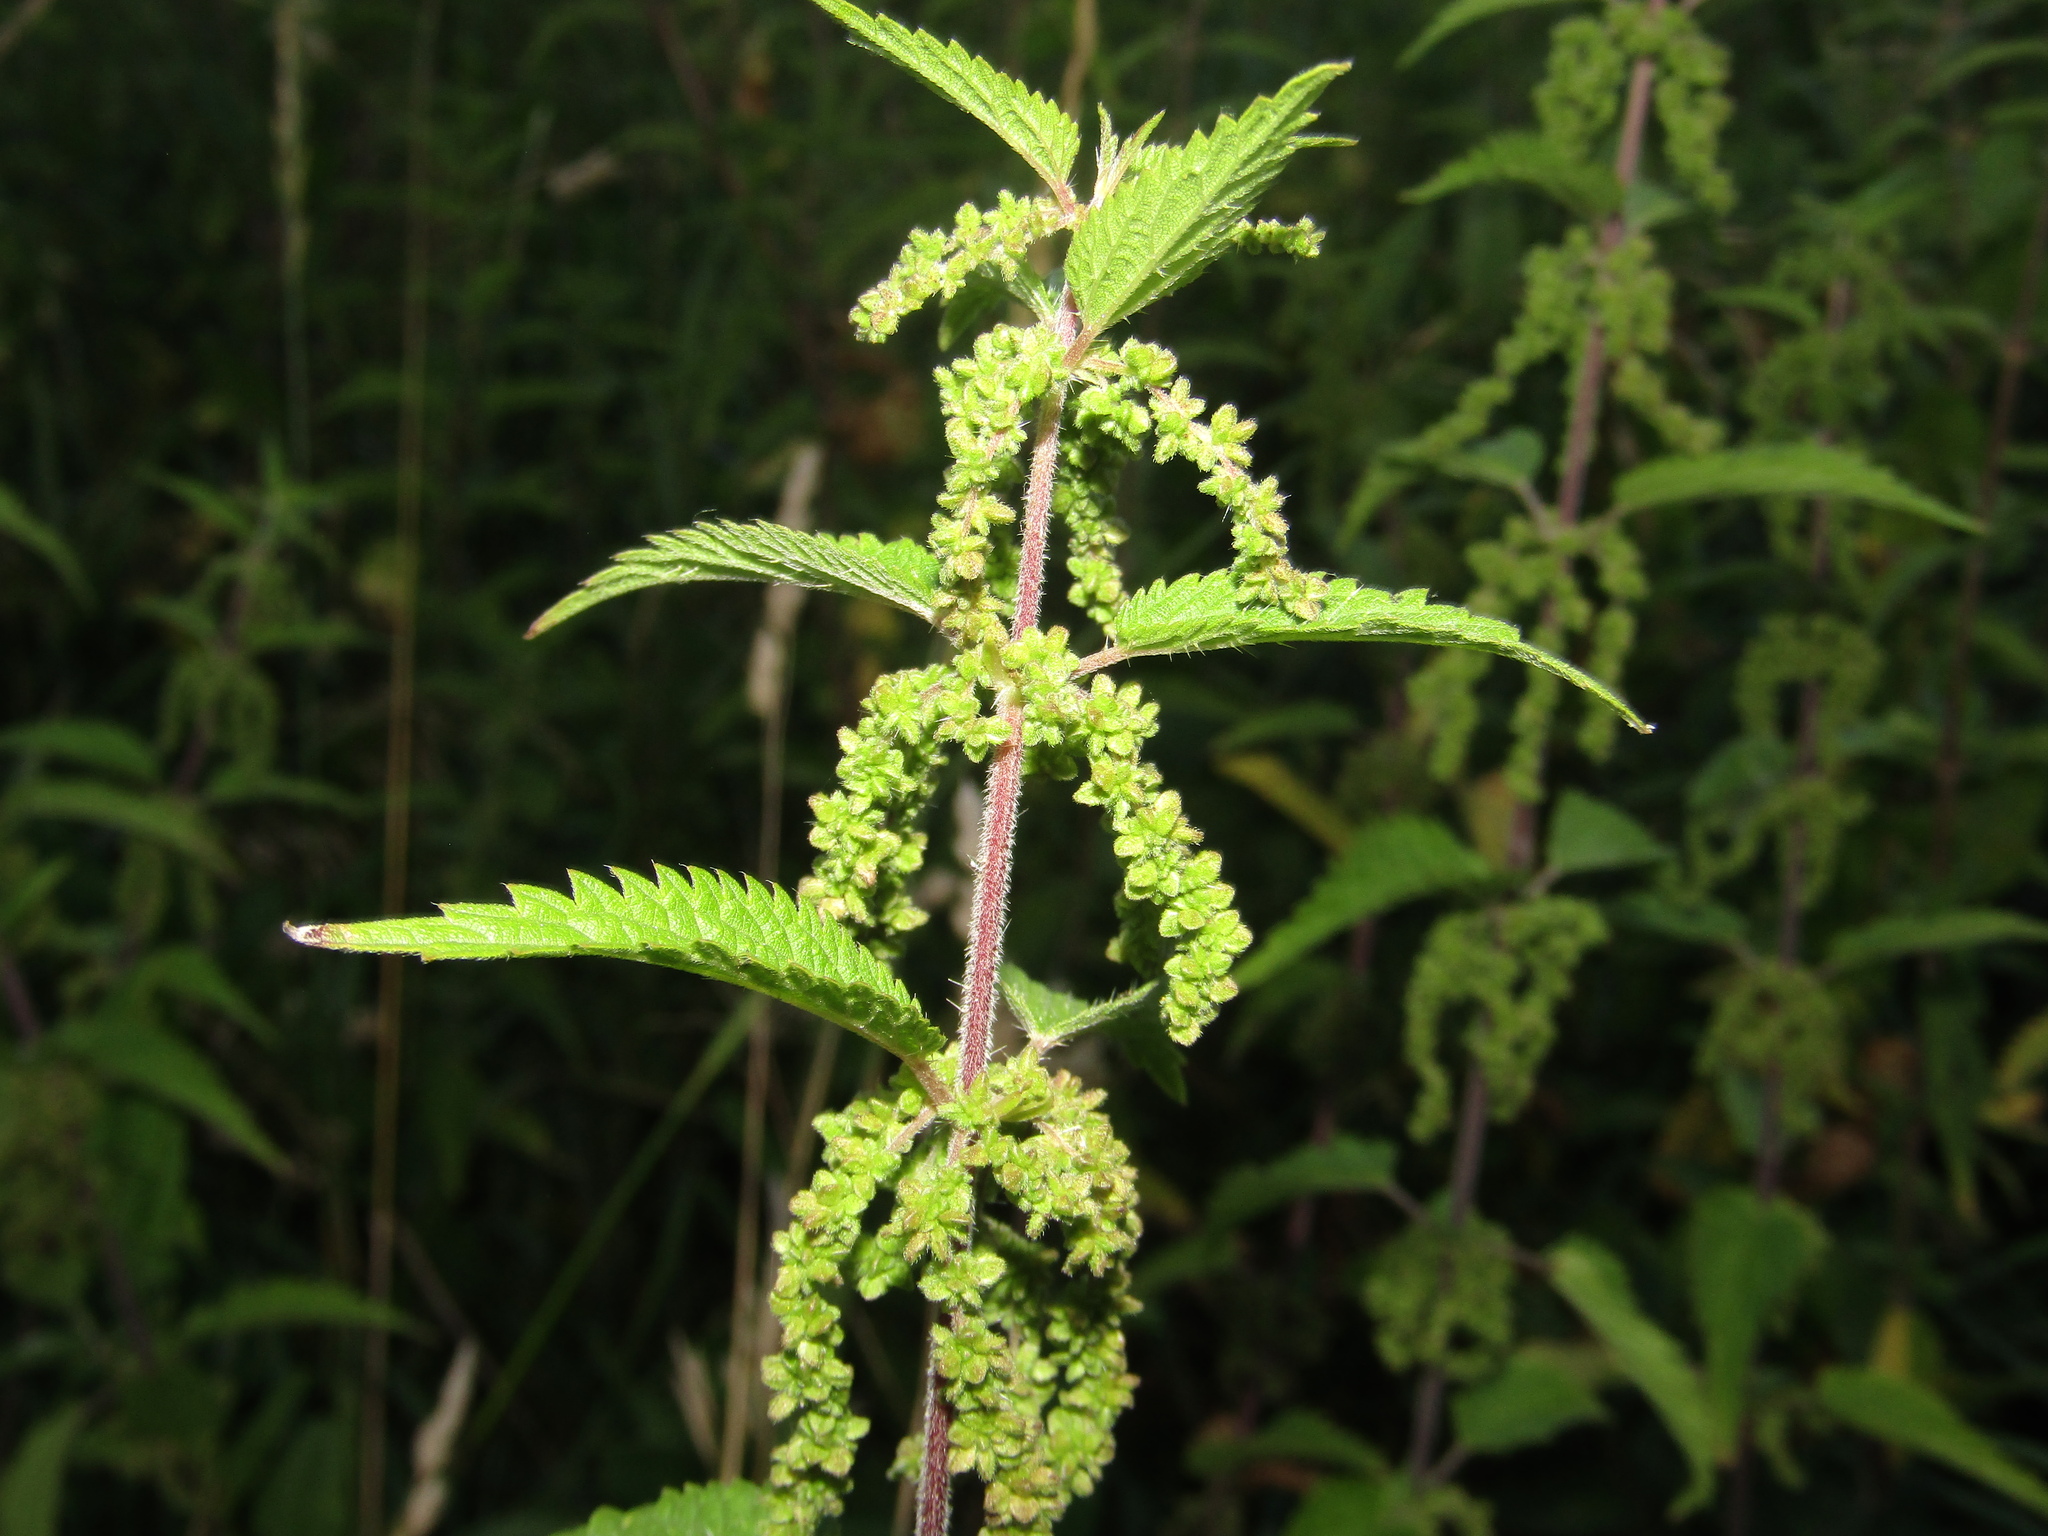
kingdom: Plantae
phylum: Tracheophyta
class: Magnoliopsida
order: Rosales
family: Urticaceae
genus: Urtica
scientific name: Urtica dioica
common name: Common nettle
